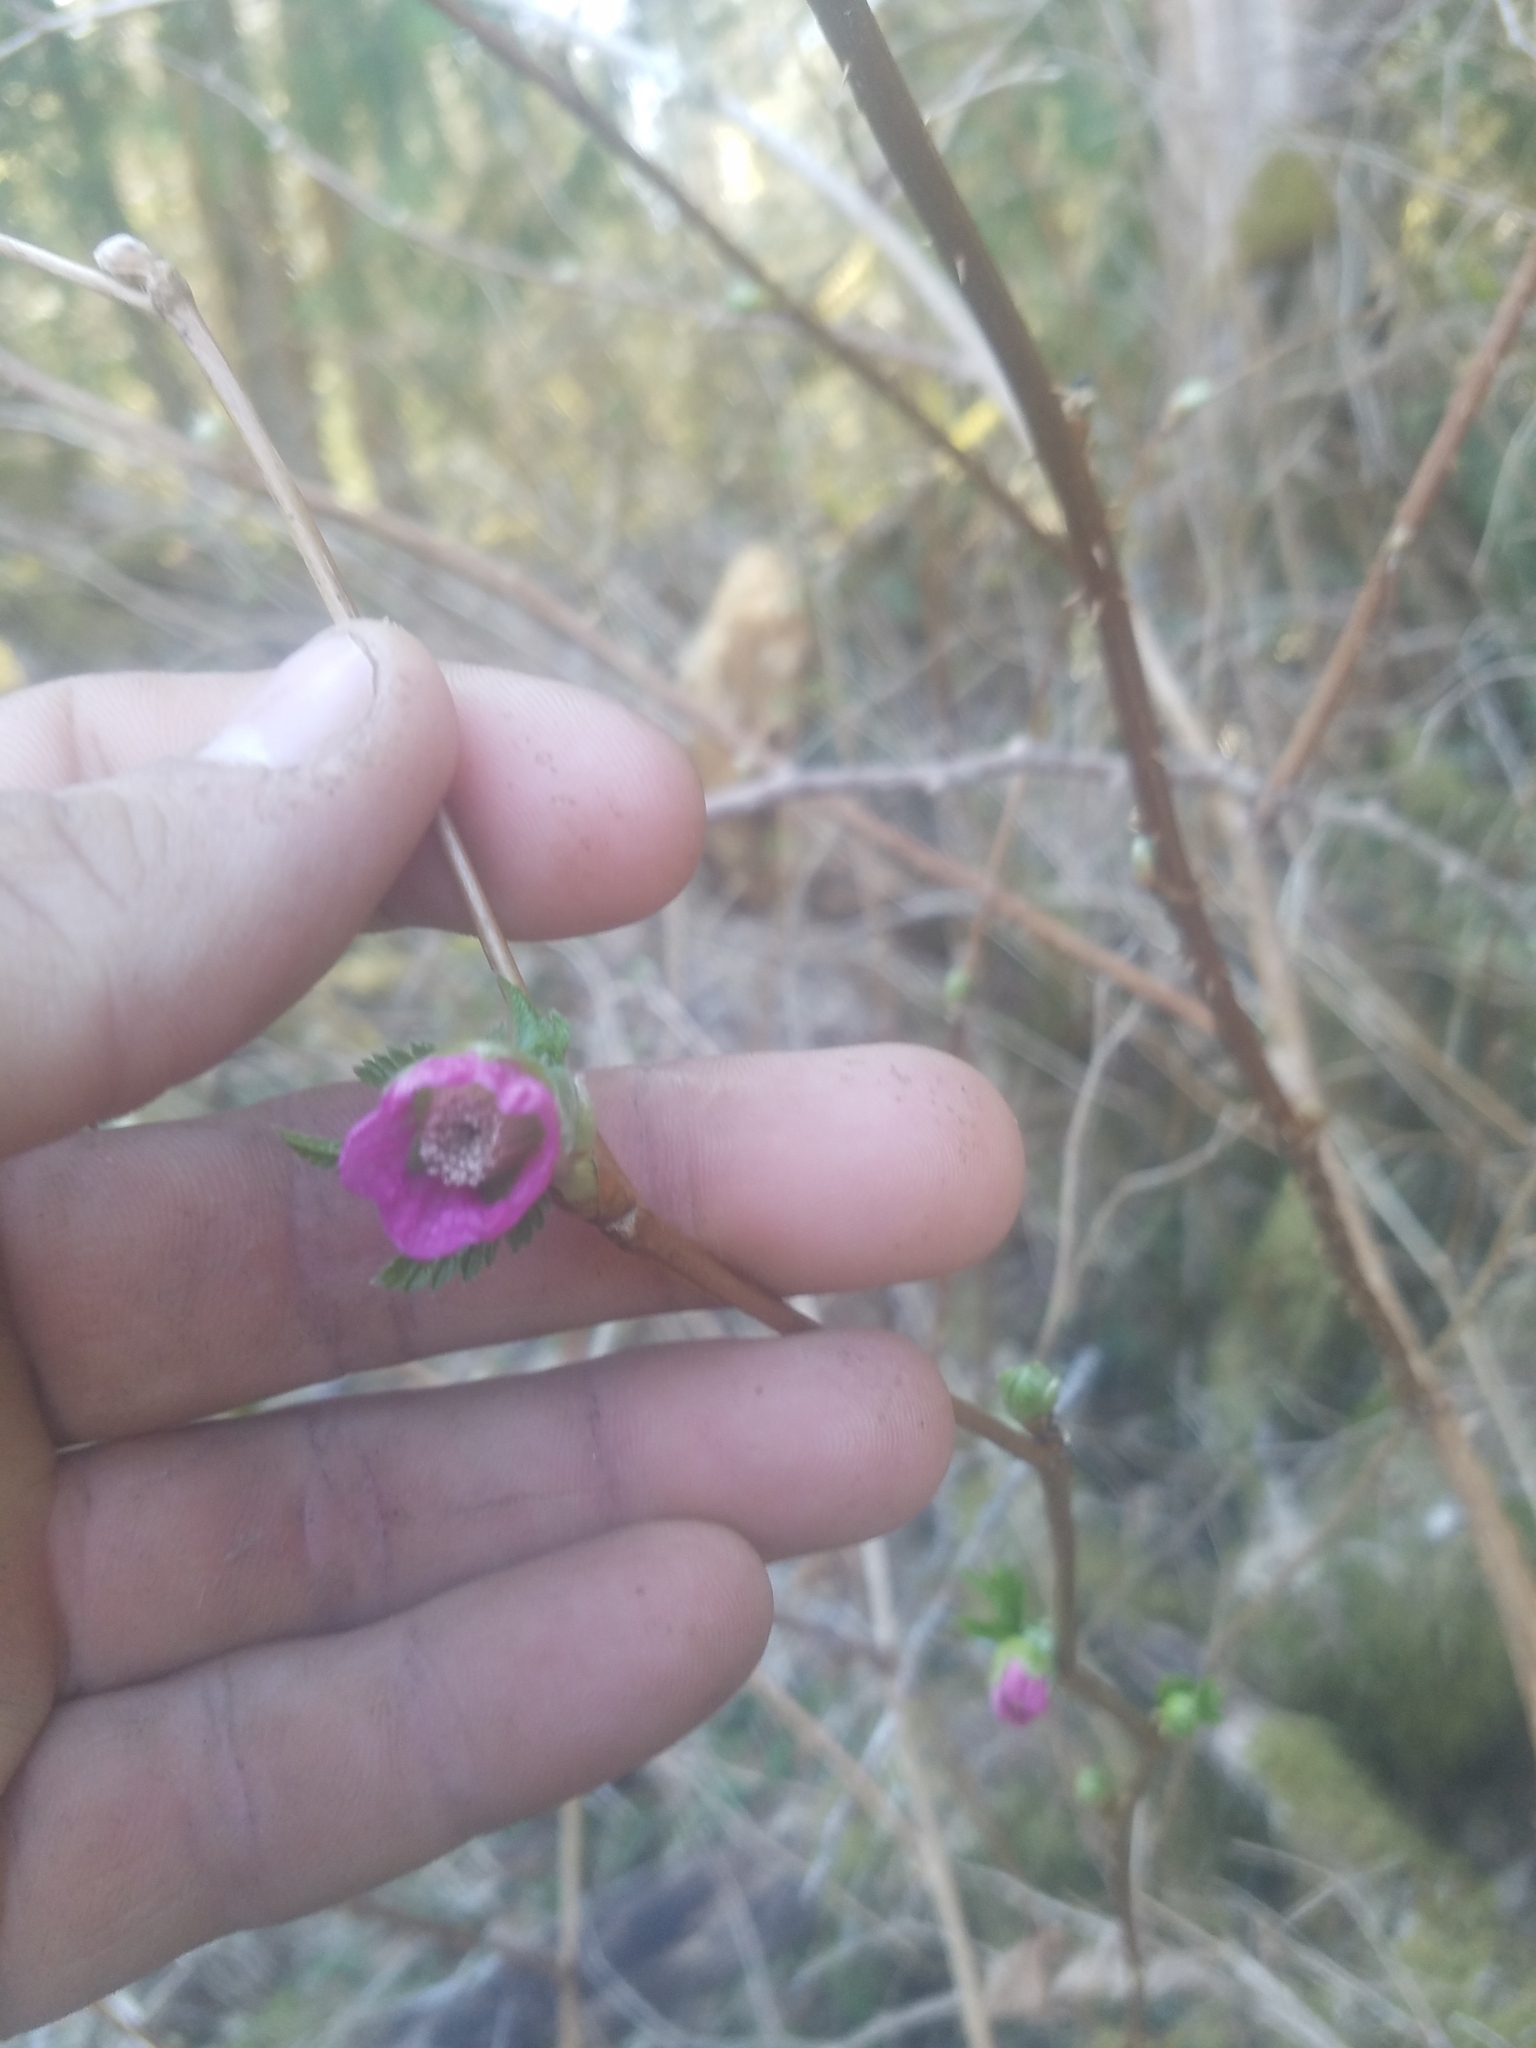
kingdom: Plantae
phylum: Tracheophyta
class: Magnoliopsida
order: Rosales
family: Rosaceae
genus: Rubus
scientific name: Rubus spectabilis
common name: Salmonberry
